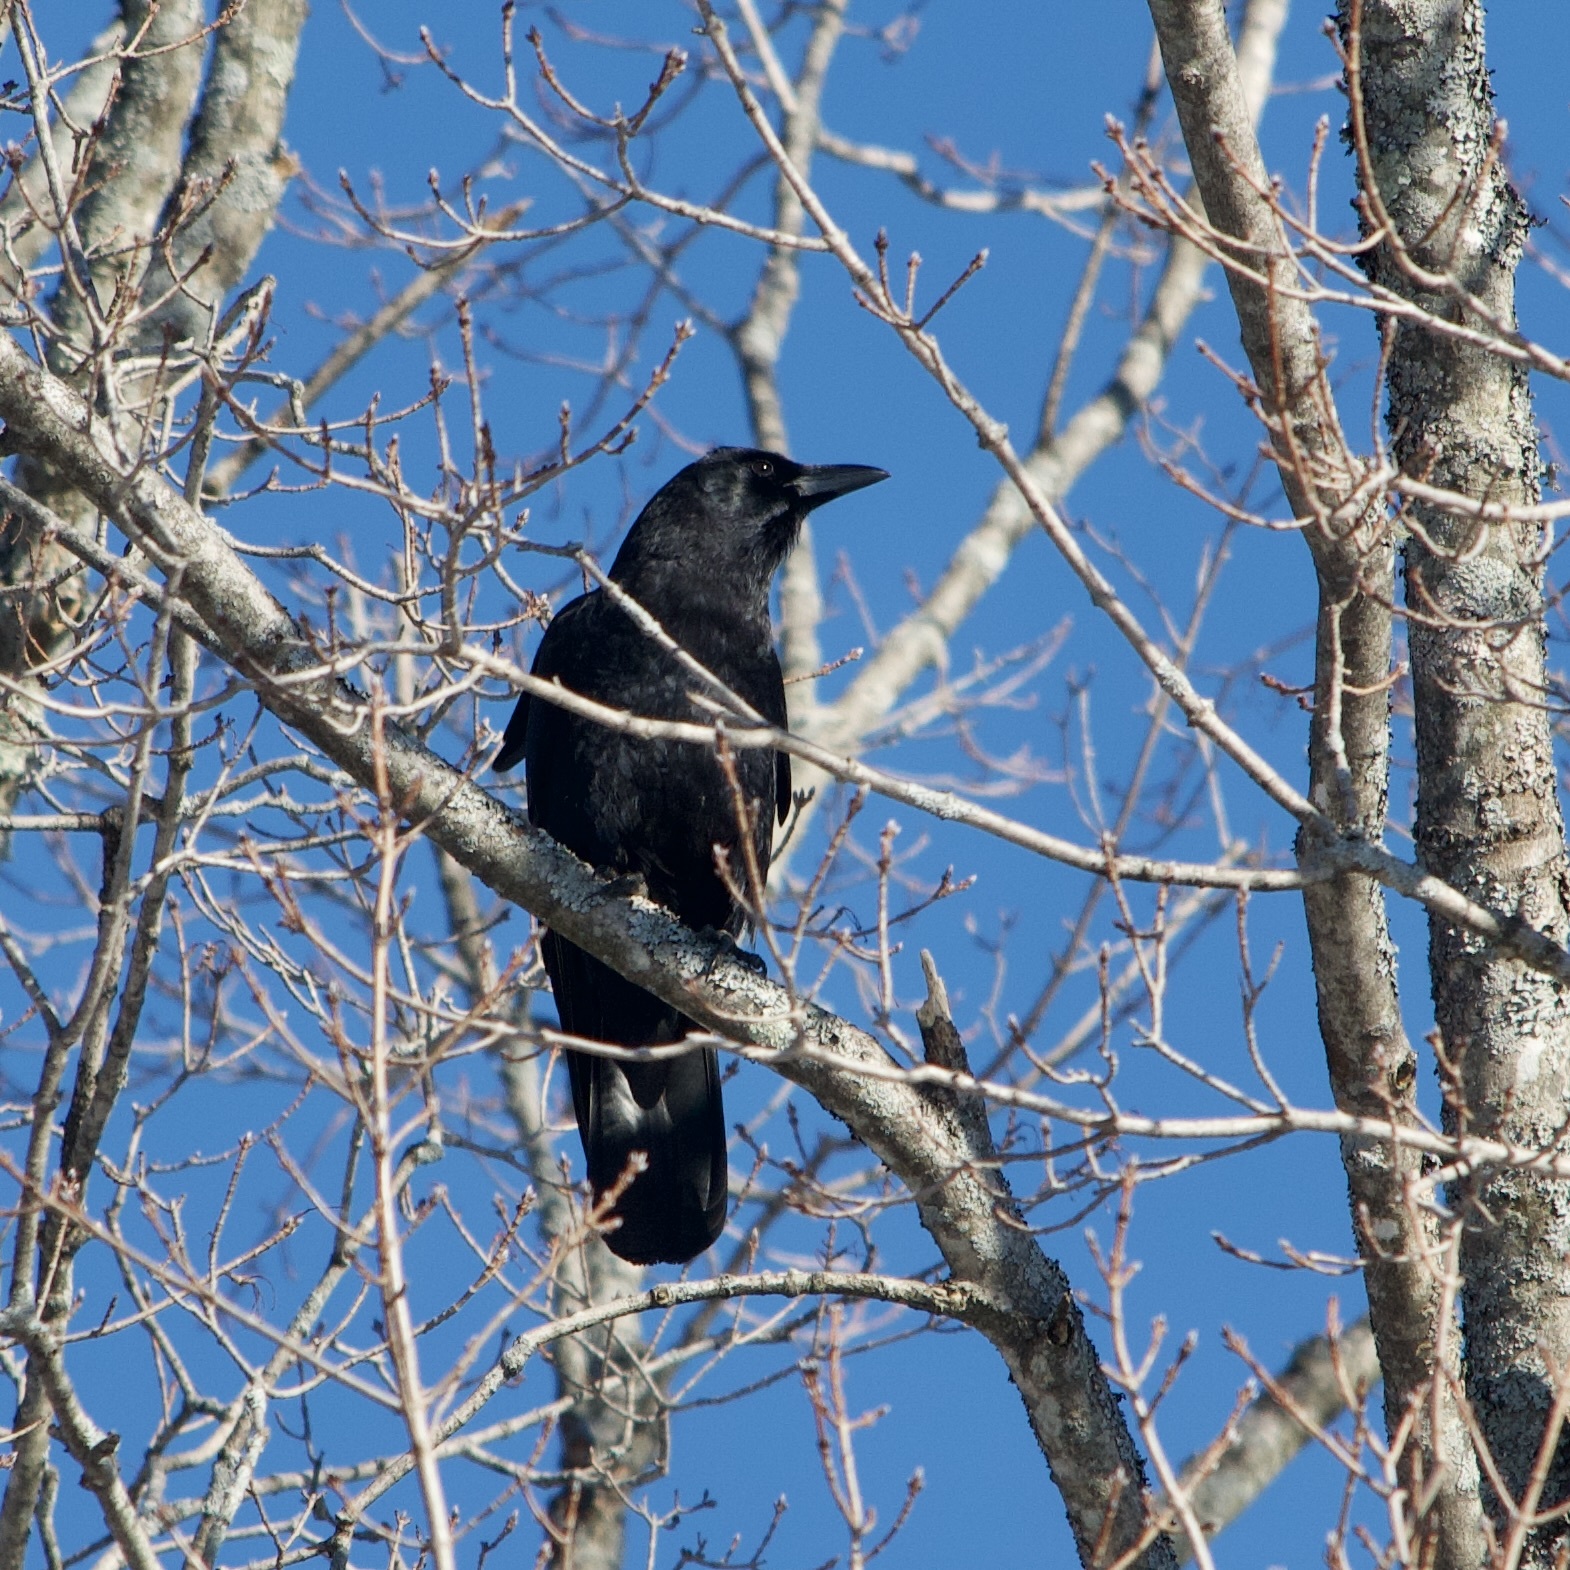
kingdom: Animalia
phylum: Chordata
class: Aves
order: Passeriformes
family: Corvidae
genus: Corvus
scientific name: Corvus brachyrhynchos
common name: American crow
